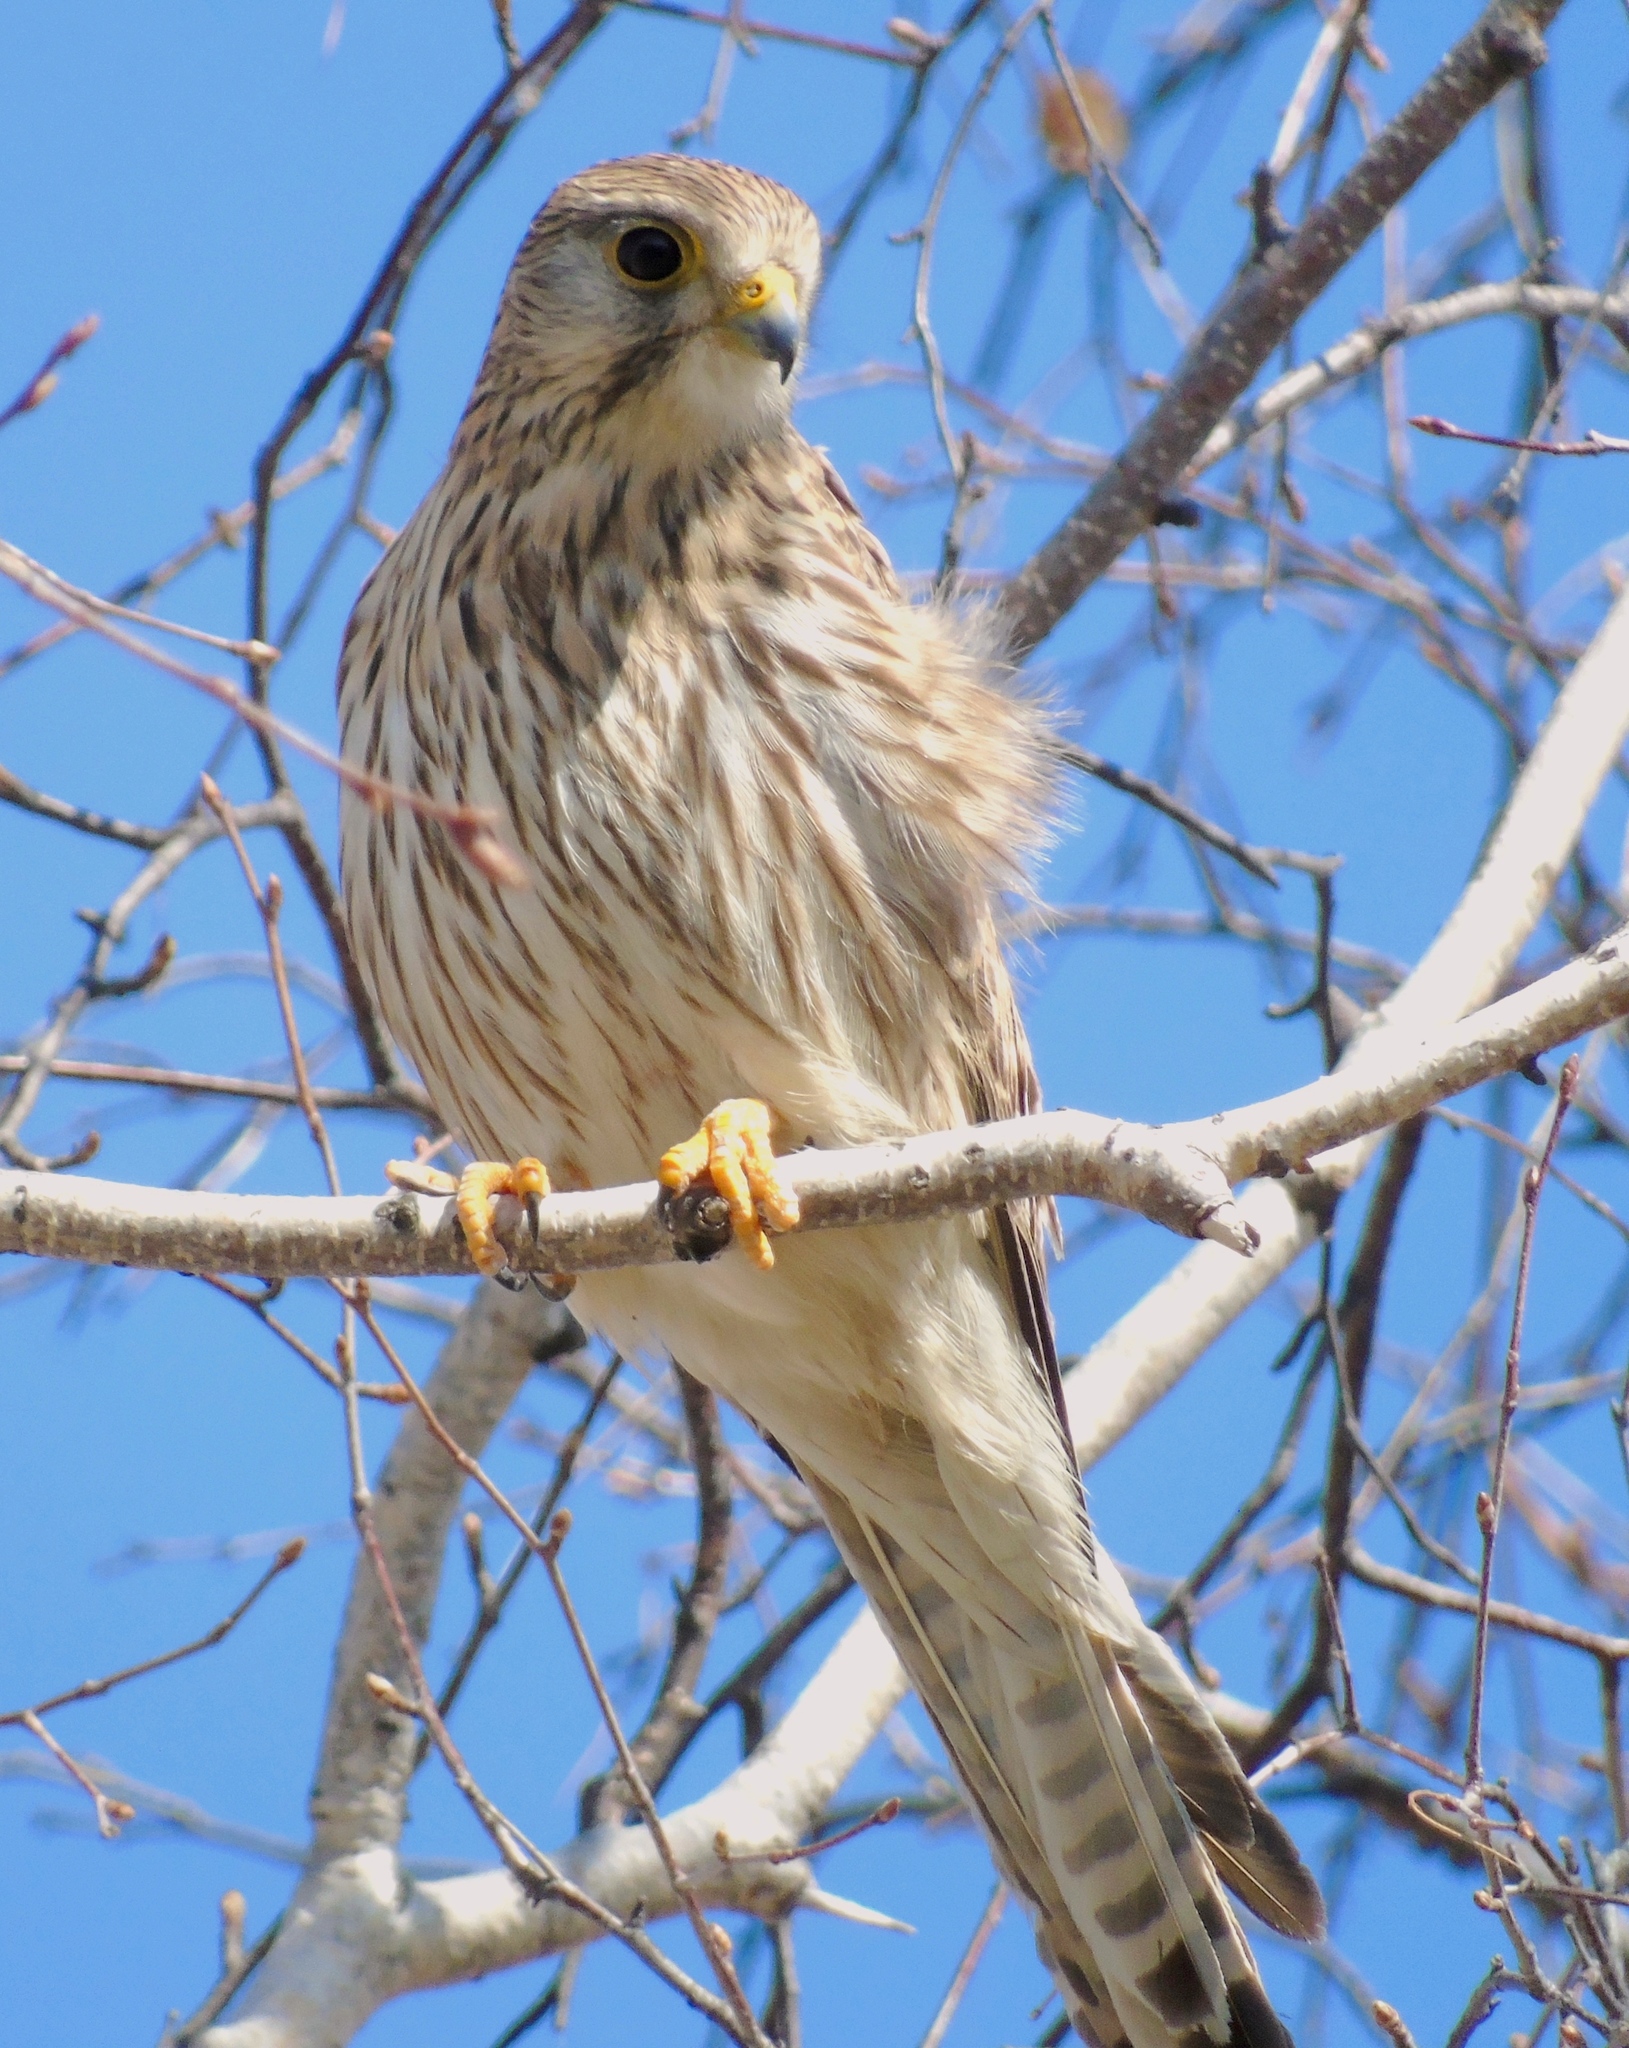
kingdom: Animalia
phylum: Chordata
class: Aves
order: Falconiformes
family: Falconidae
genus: Falco
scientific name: Falco tinnunculus
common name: Common kestrel
